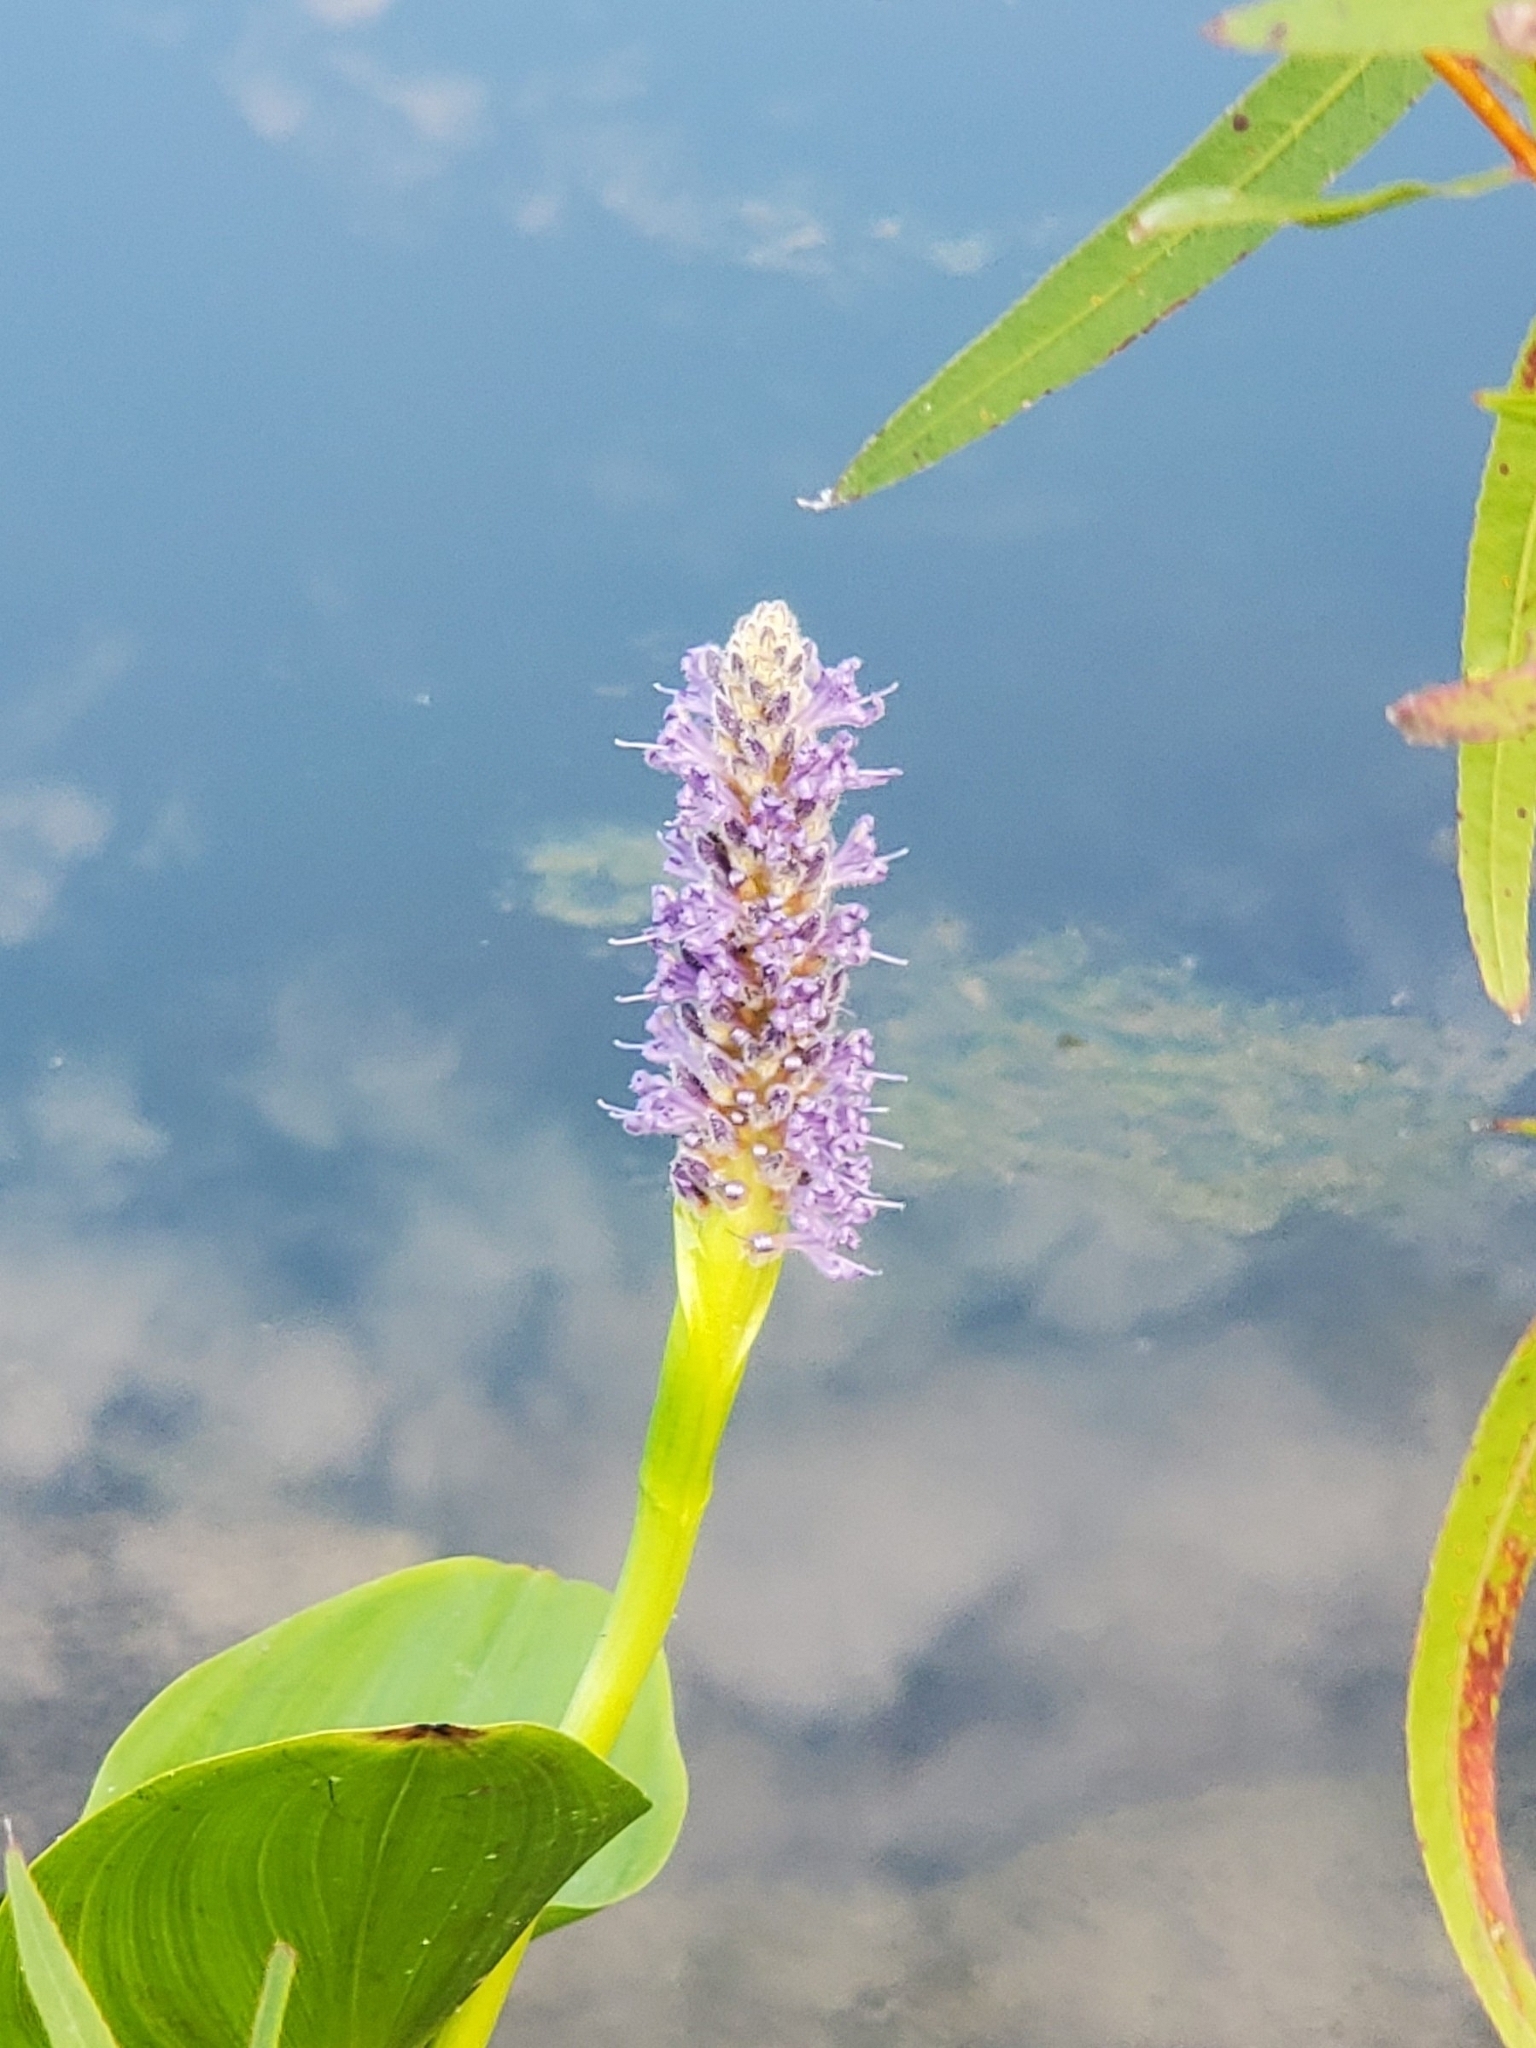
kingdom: Plantae
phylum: Tracheophyta
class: Liliopsida
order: Commelinales
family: Pontederiaceae
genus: Pontederia
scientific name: Pontederia cordata
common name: Pickerelweed
